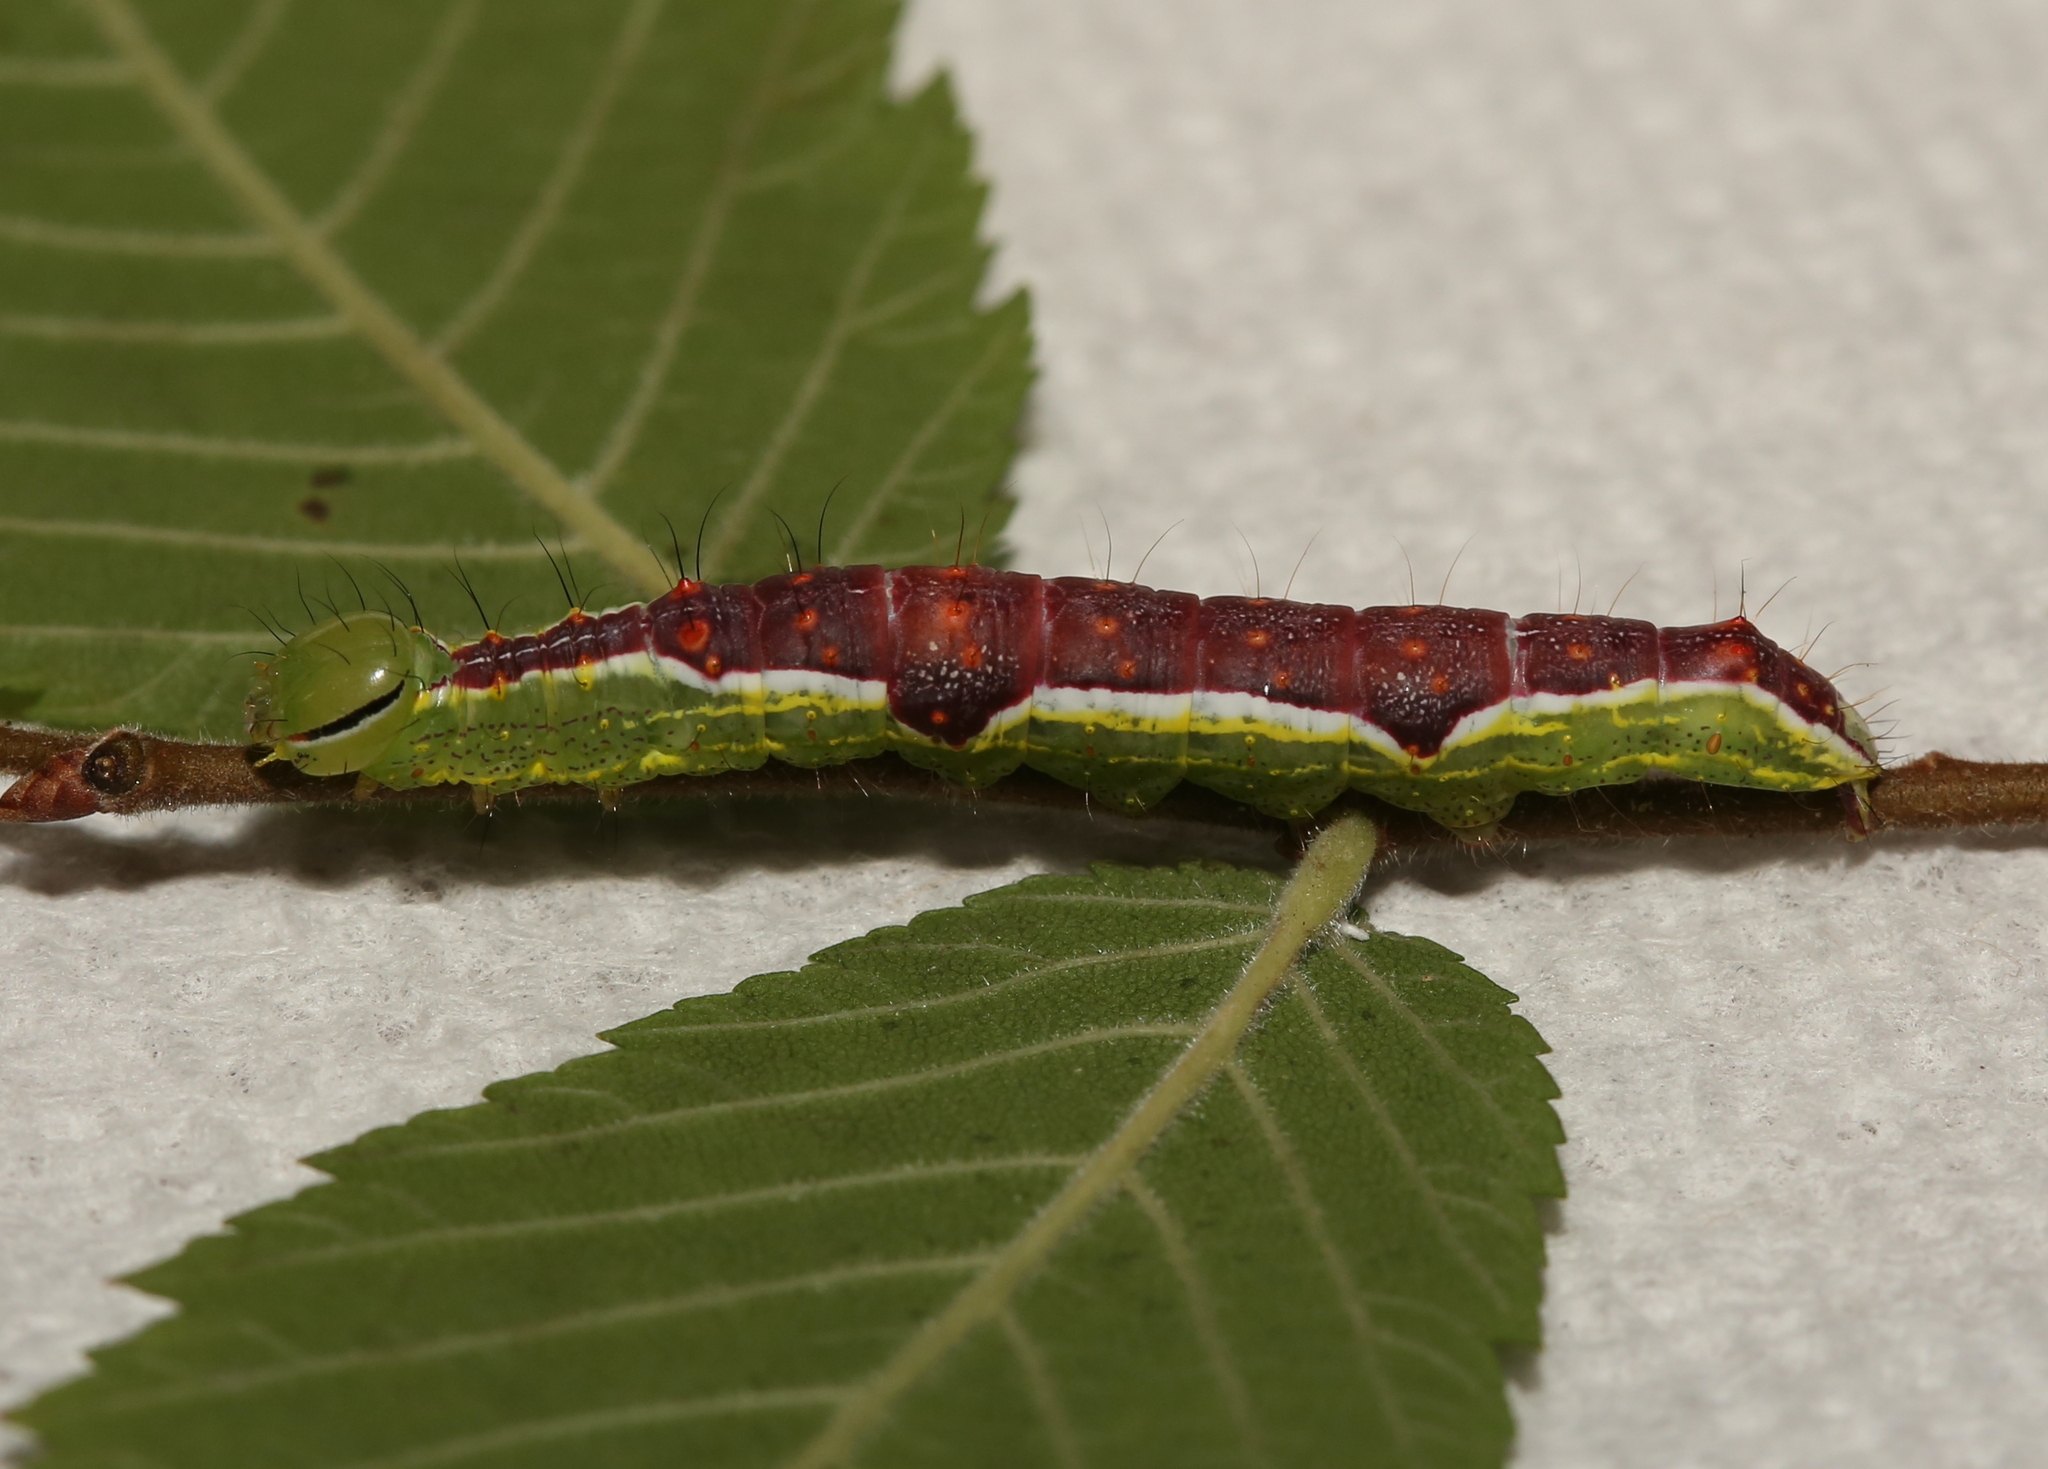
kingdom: Animalia
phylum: Arthropoda
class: Insecta
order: Lepidoptera
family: Notodontidae
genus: Lochmaeus
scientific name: Lochmaeus bilineata
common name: Double-lined prominent
